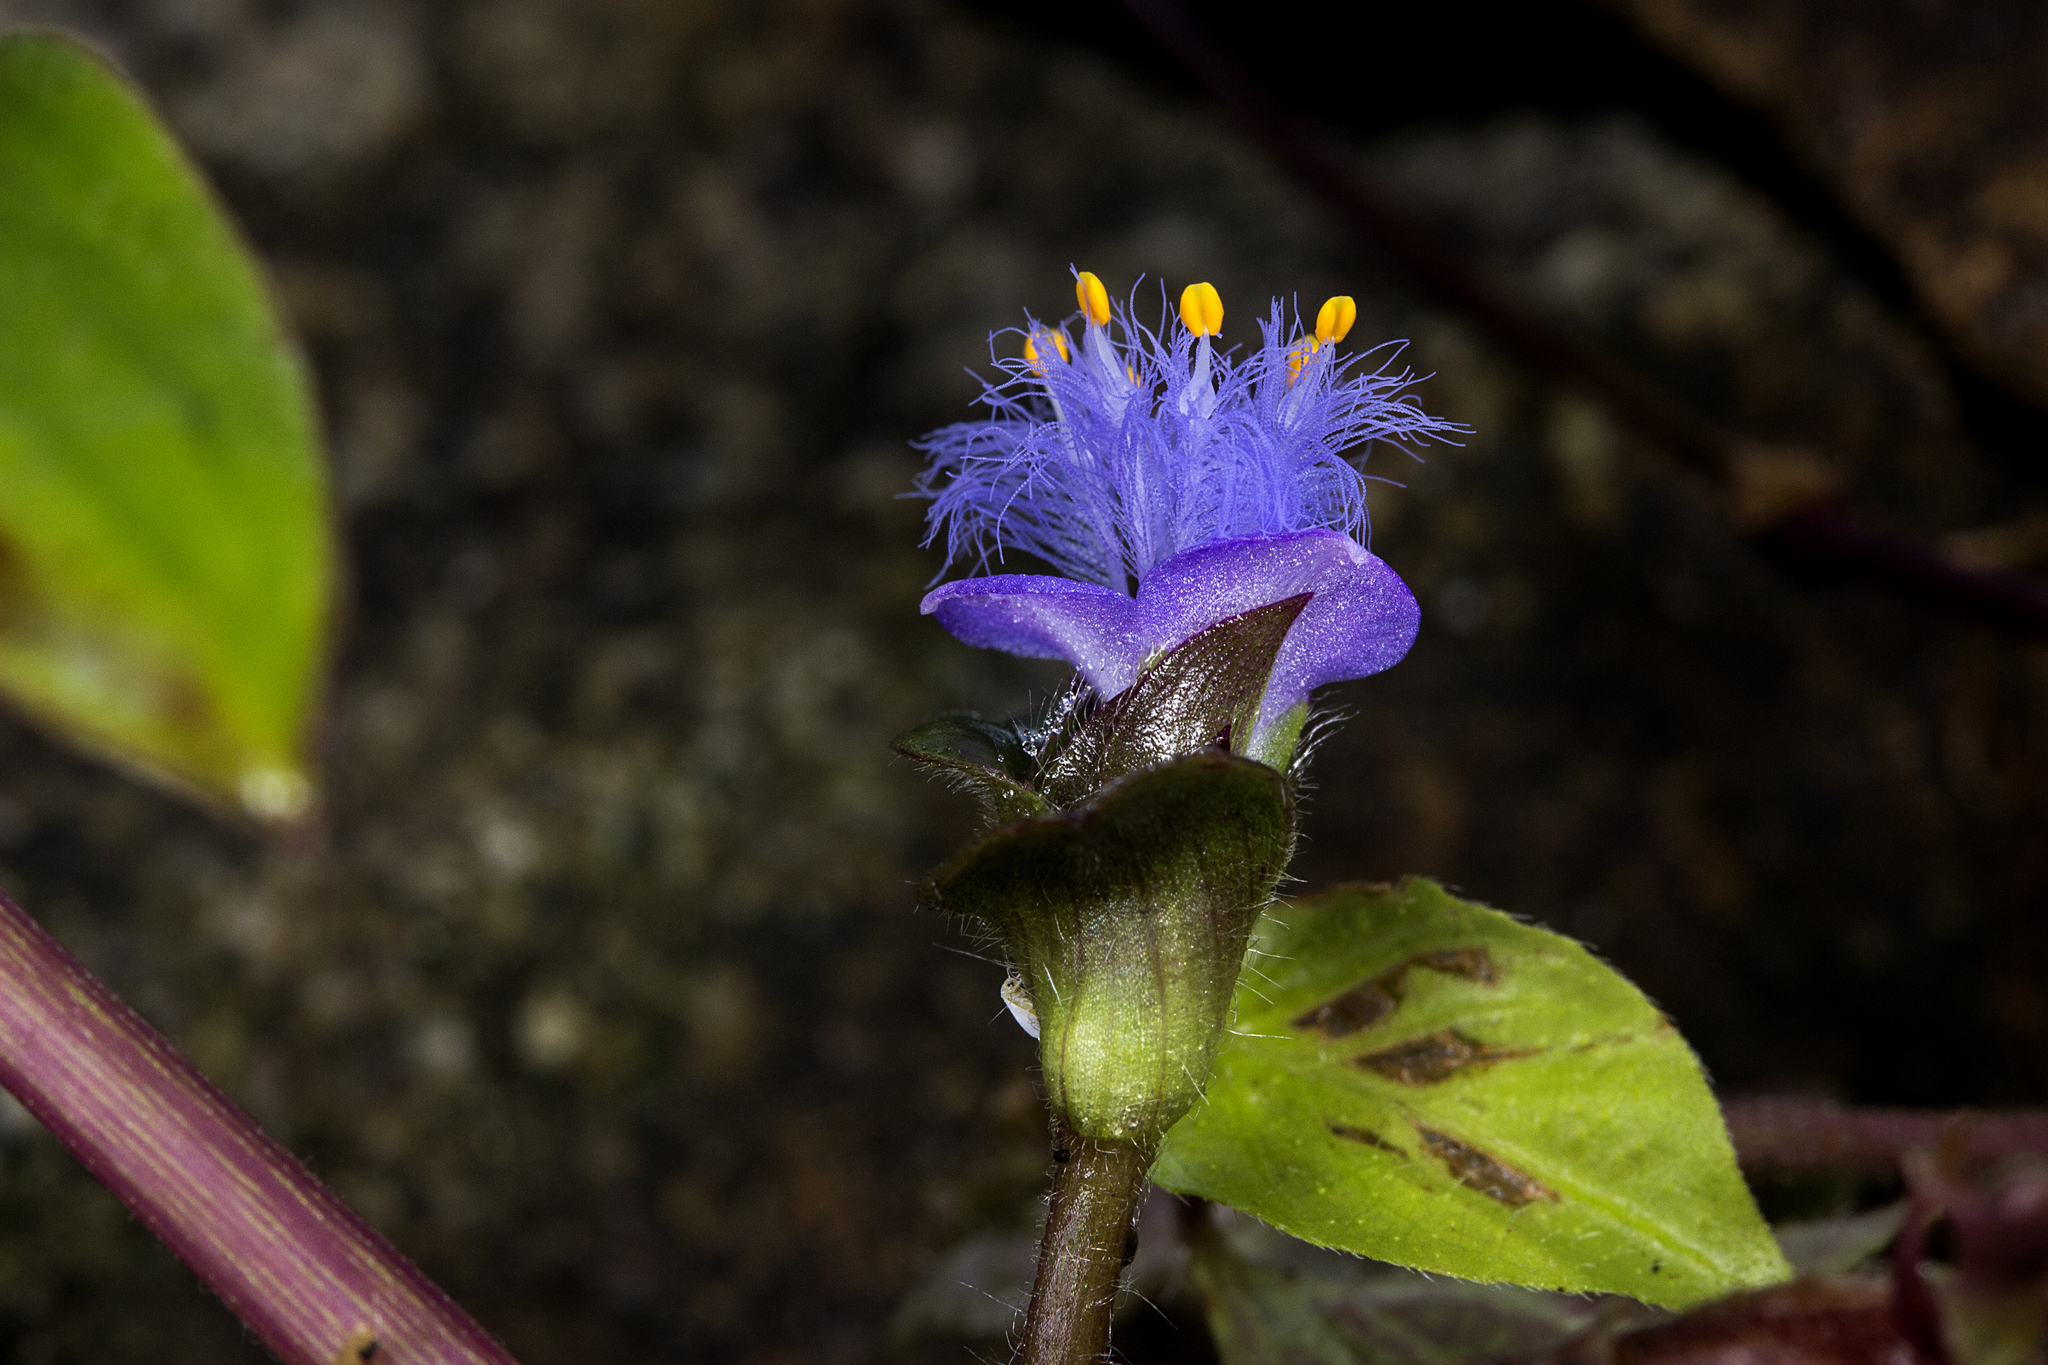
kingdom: Plantae
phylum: Tracheophyta
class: Liliopsida
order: Commelinales
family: Commelinaceae
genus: Cyanotis
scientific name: Cyanotis villosa
